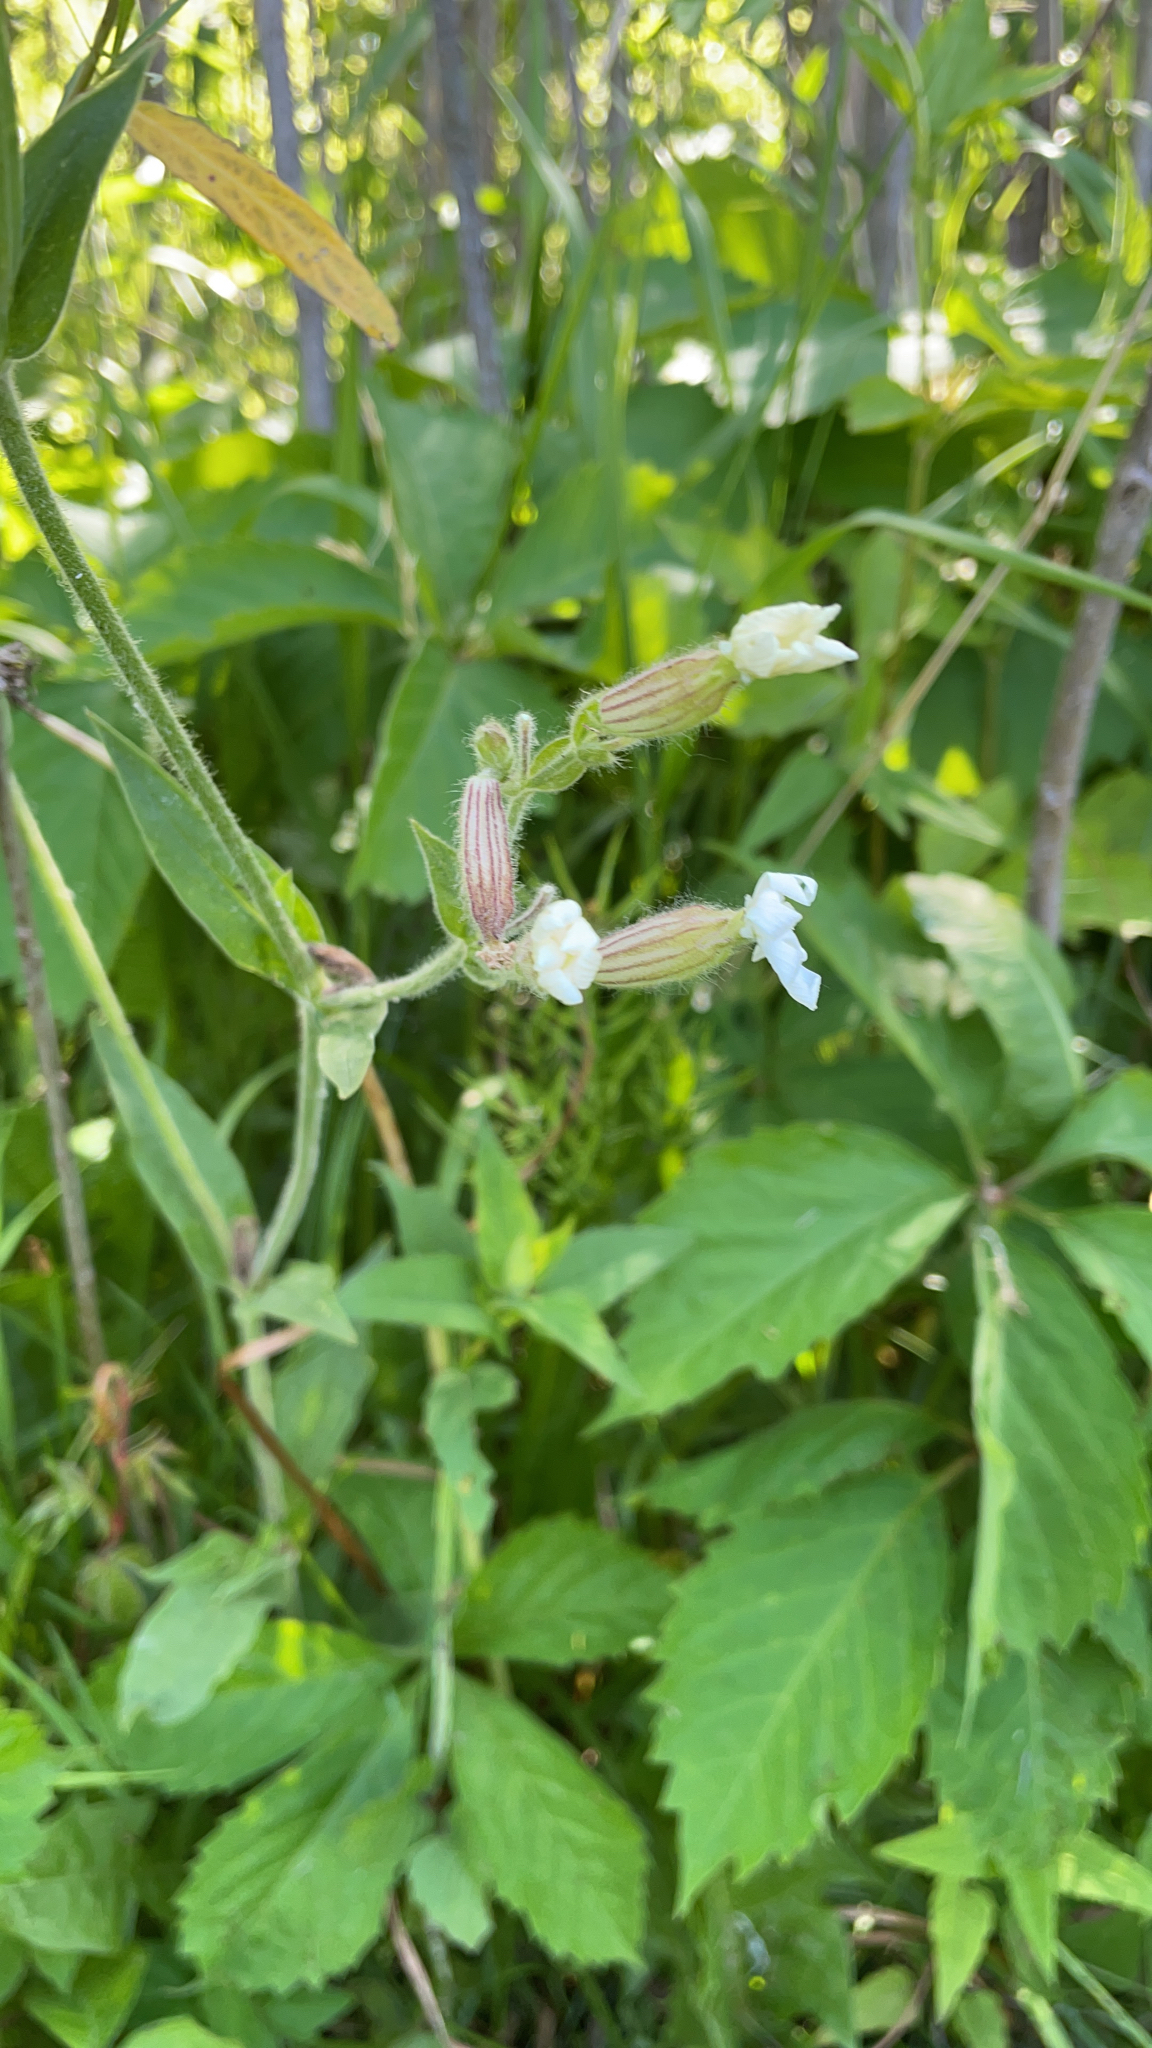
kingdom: Plantae
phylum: Tracheophyta
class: Magnoliopsida
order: Caryophyllales
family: Caryophyllaceae
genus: Silene
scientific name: Silene latifolia
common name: White campion
